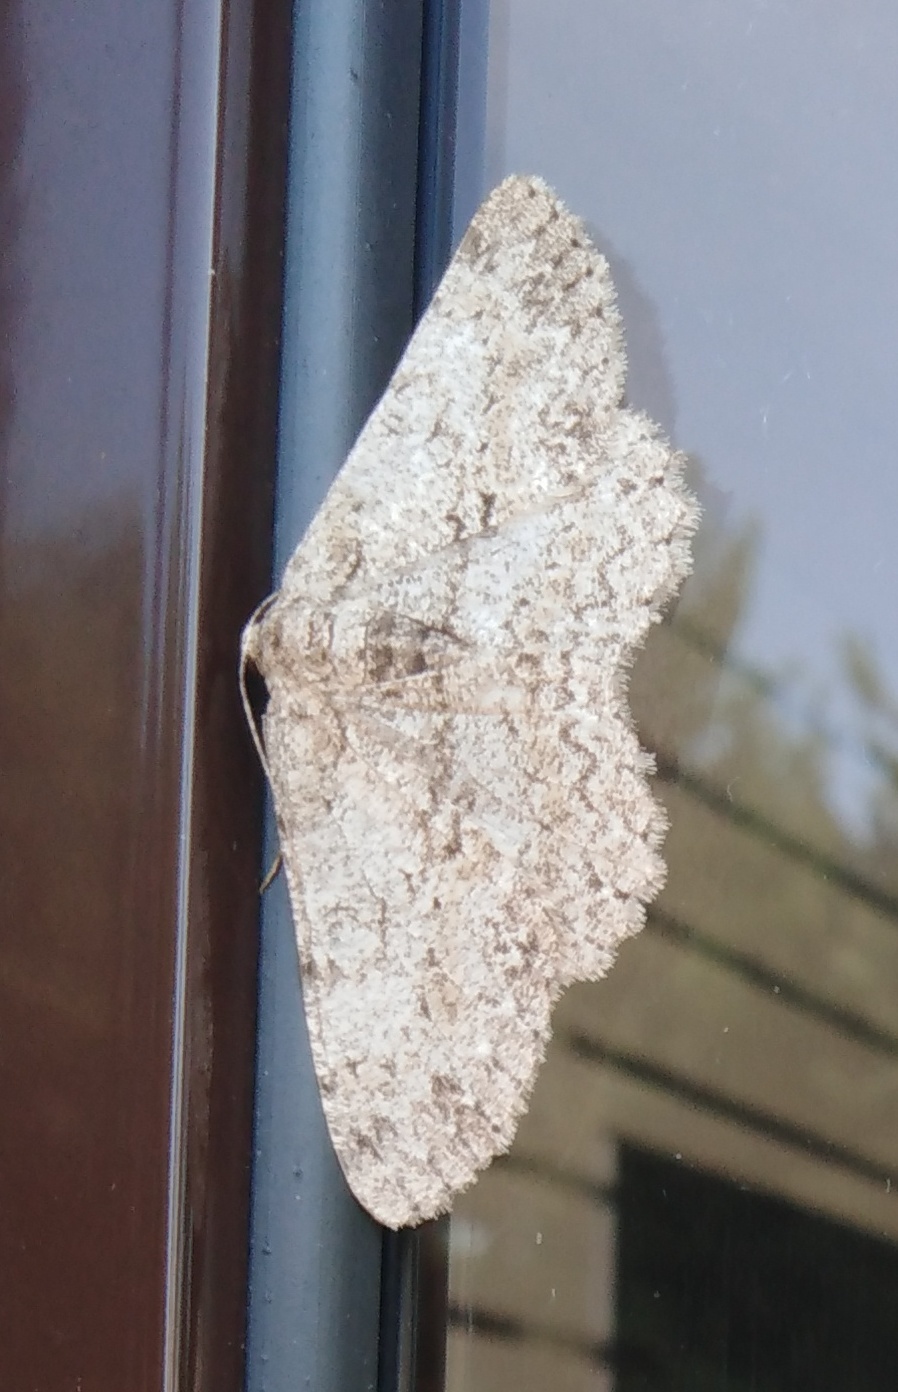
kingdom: Animalia
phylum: Arthropoda
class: Insecta
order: Lepidoptera
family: Geometridae
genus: Hypomecis
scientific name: Hypomecis punctinalis
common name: Pale oak beauty
